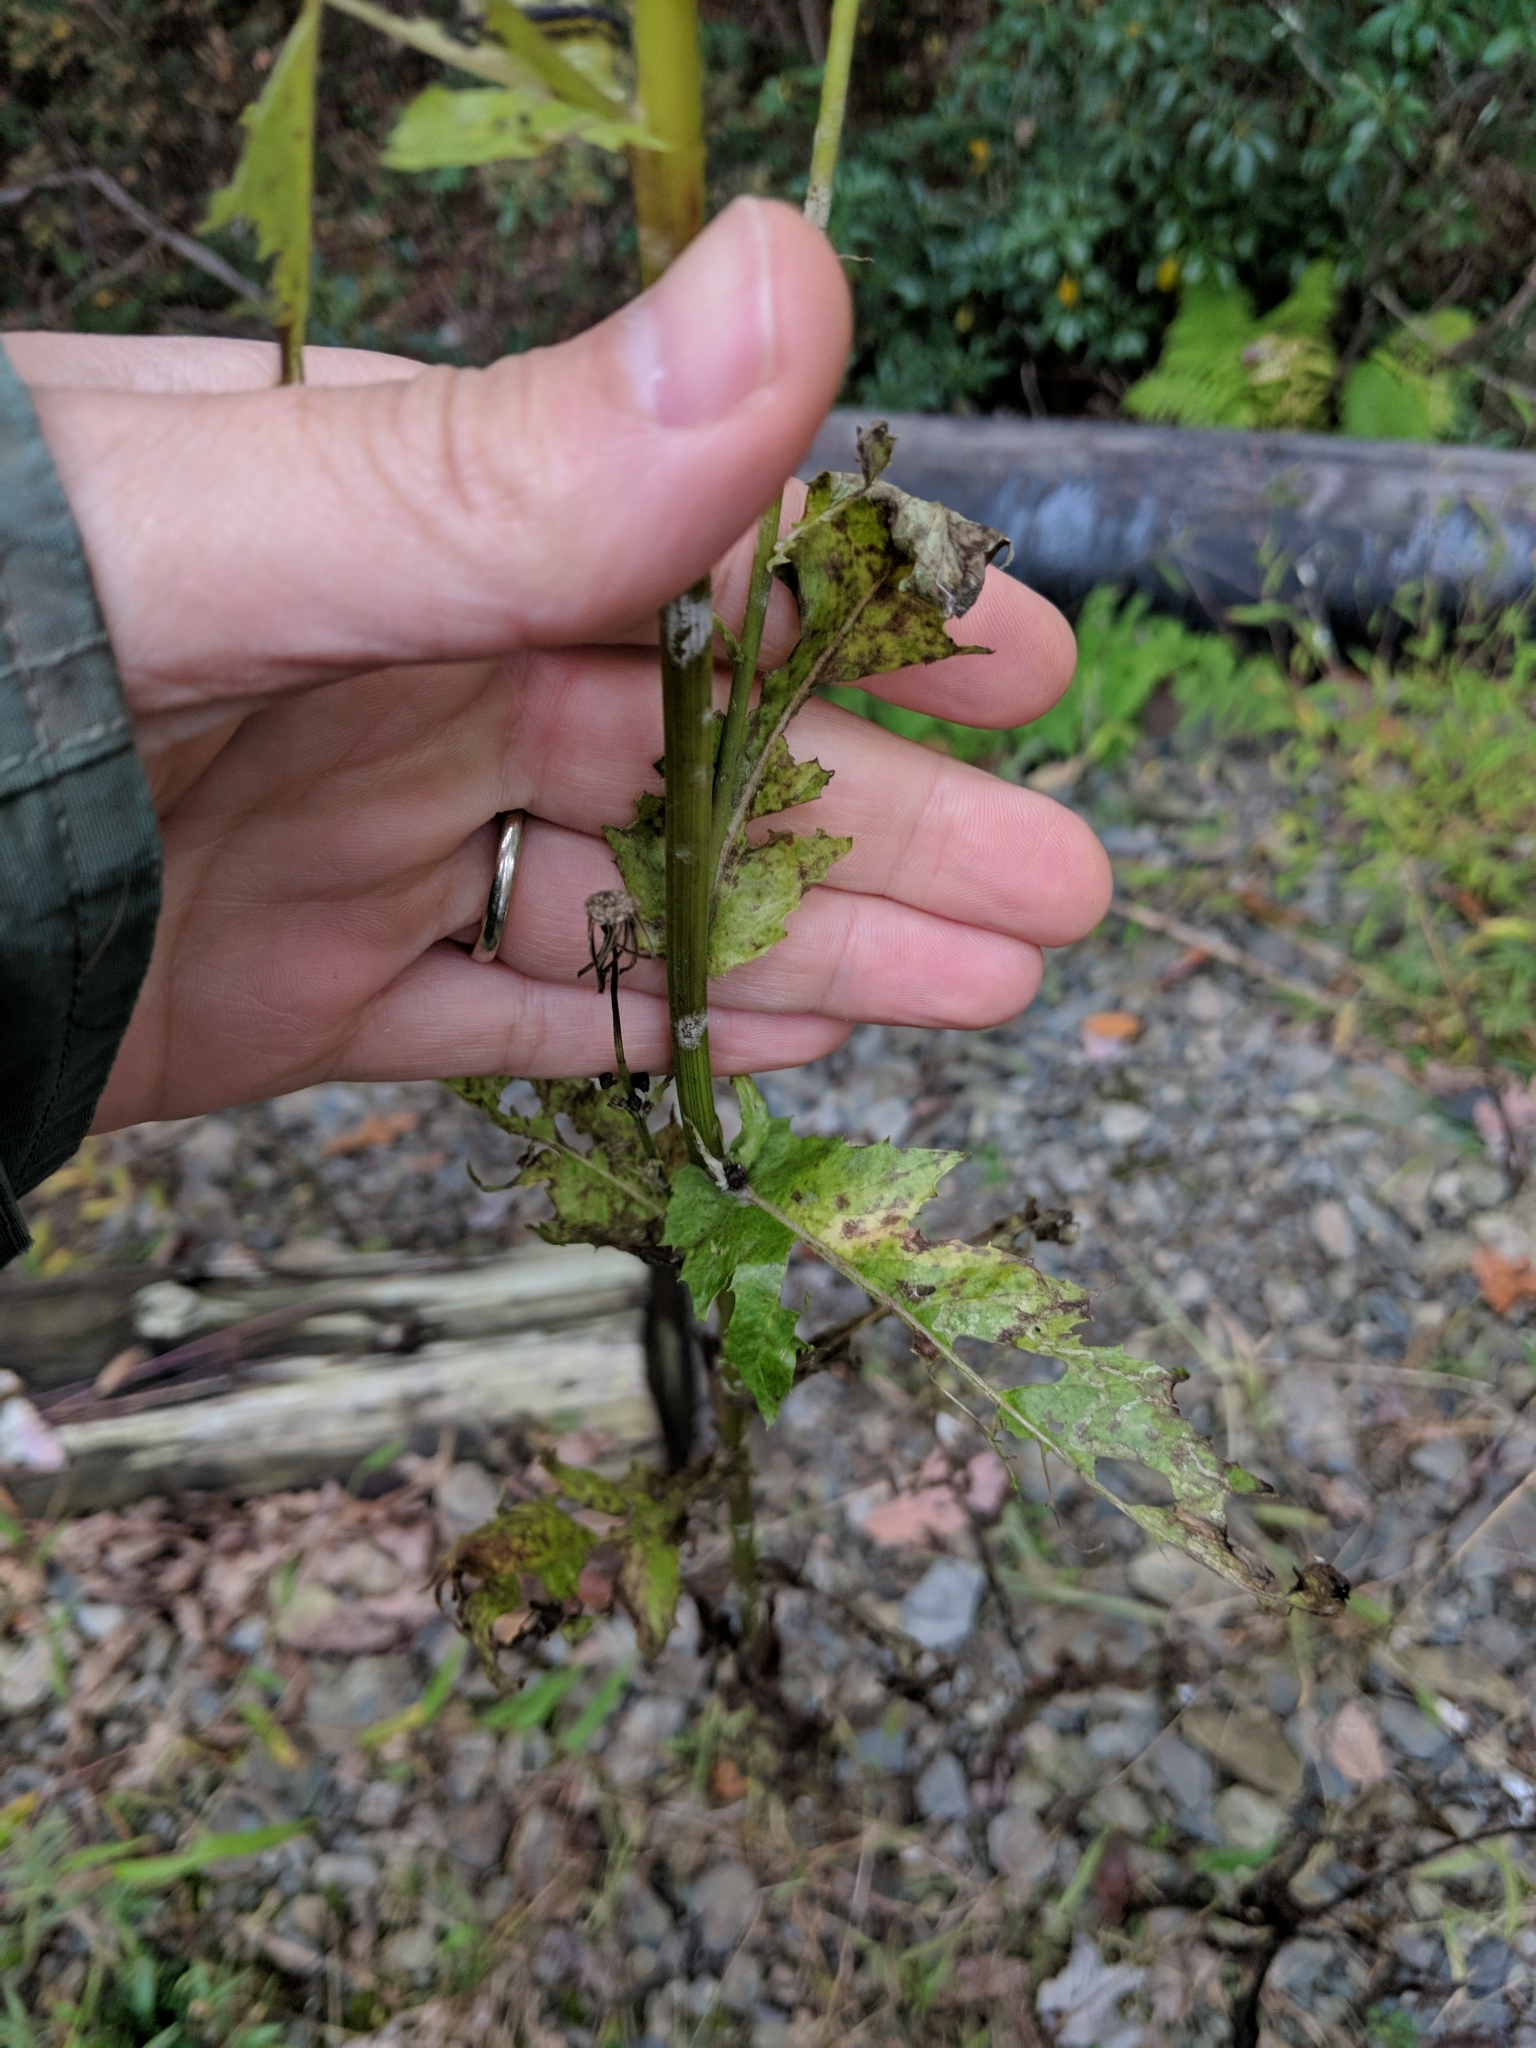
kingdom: Plantae
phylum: Tracheophyta
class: Magnoliopsida
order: Asterales
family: Asteraceae
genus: Erechtites
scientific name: Erechtites hieraciifolius
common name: American burnweed
